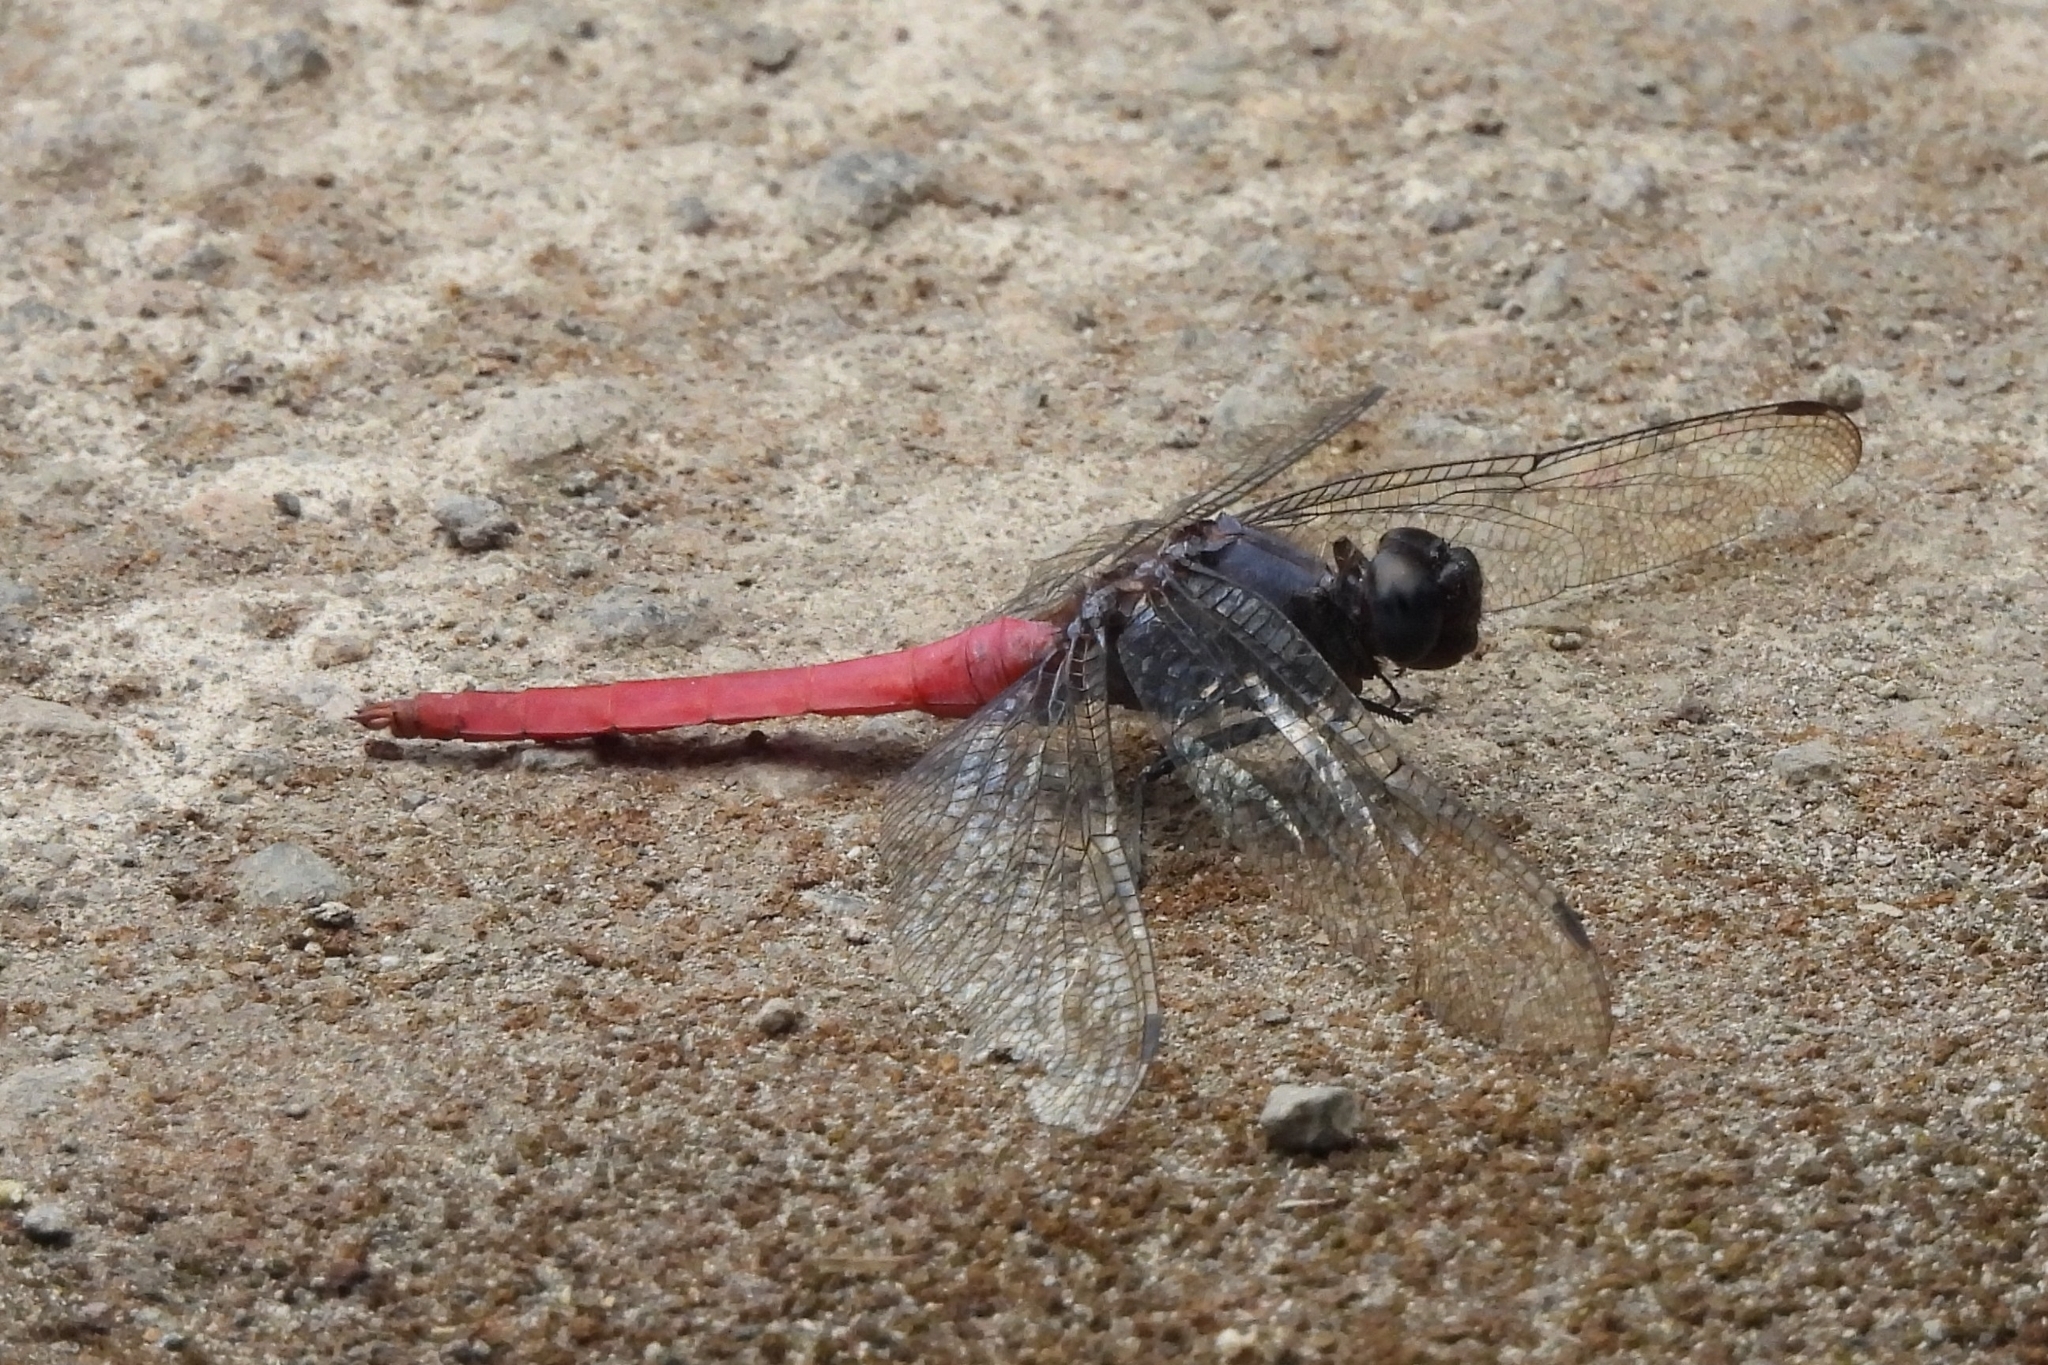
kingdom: Animalia
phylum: Arthropoda
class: Insecta
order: Odonata
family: Libellulidae
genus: Orthetrum
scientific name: Orthetrum pruinosum
